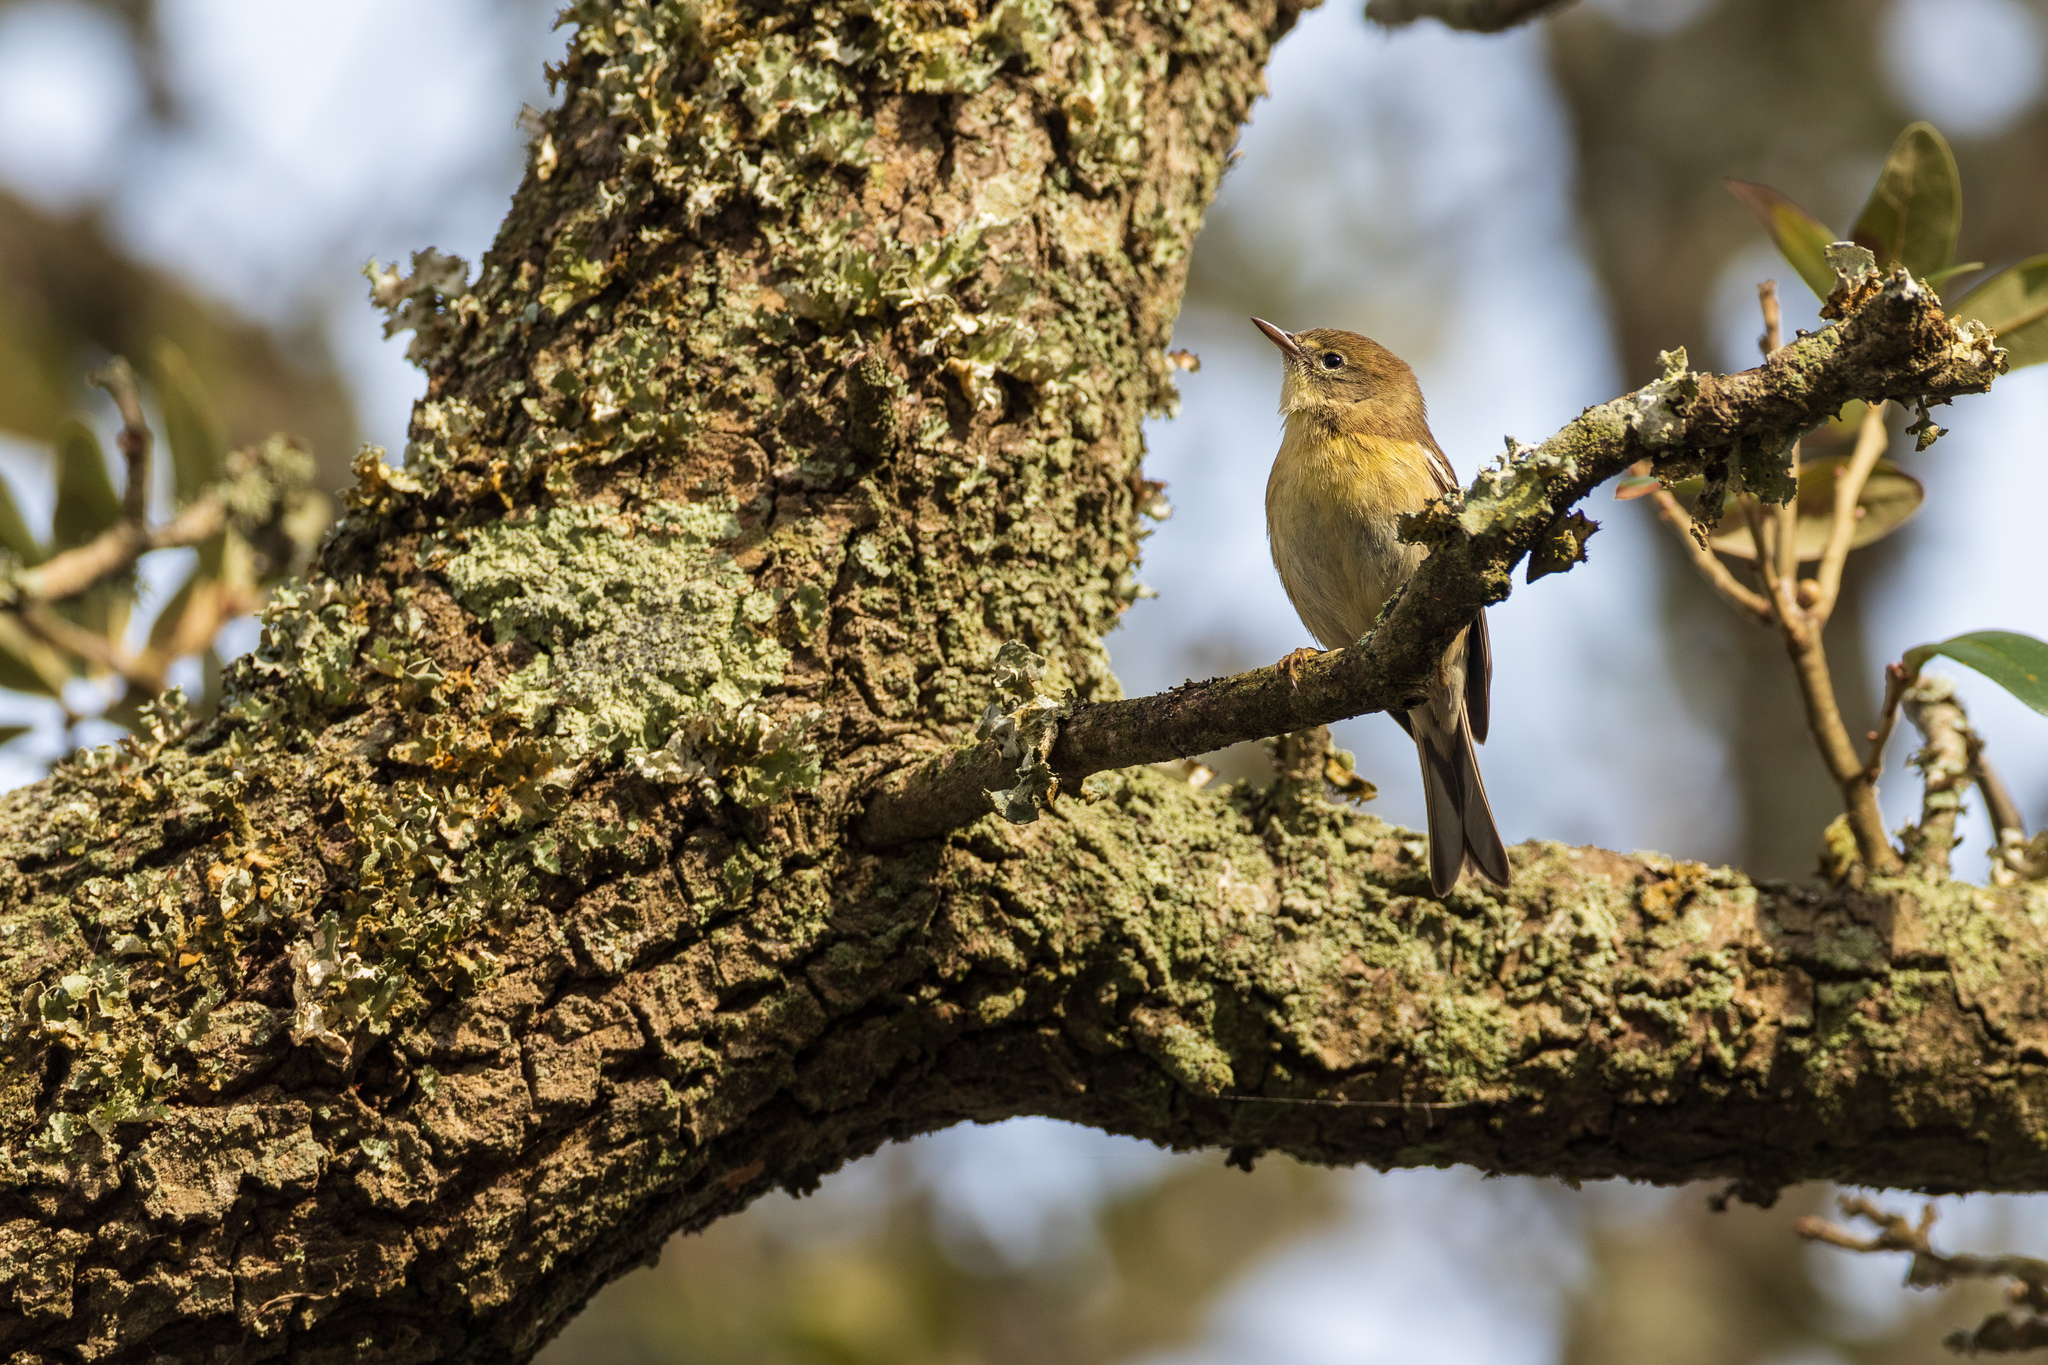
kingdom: Animalia
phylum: Chordata
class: Aves
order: Passeriformes
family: Parulidae
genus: Setophaga
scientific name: Setophaga pinus
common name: Pine warbler
